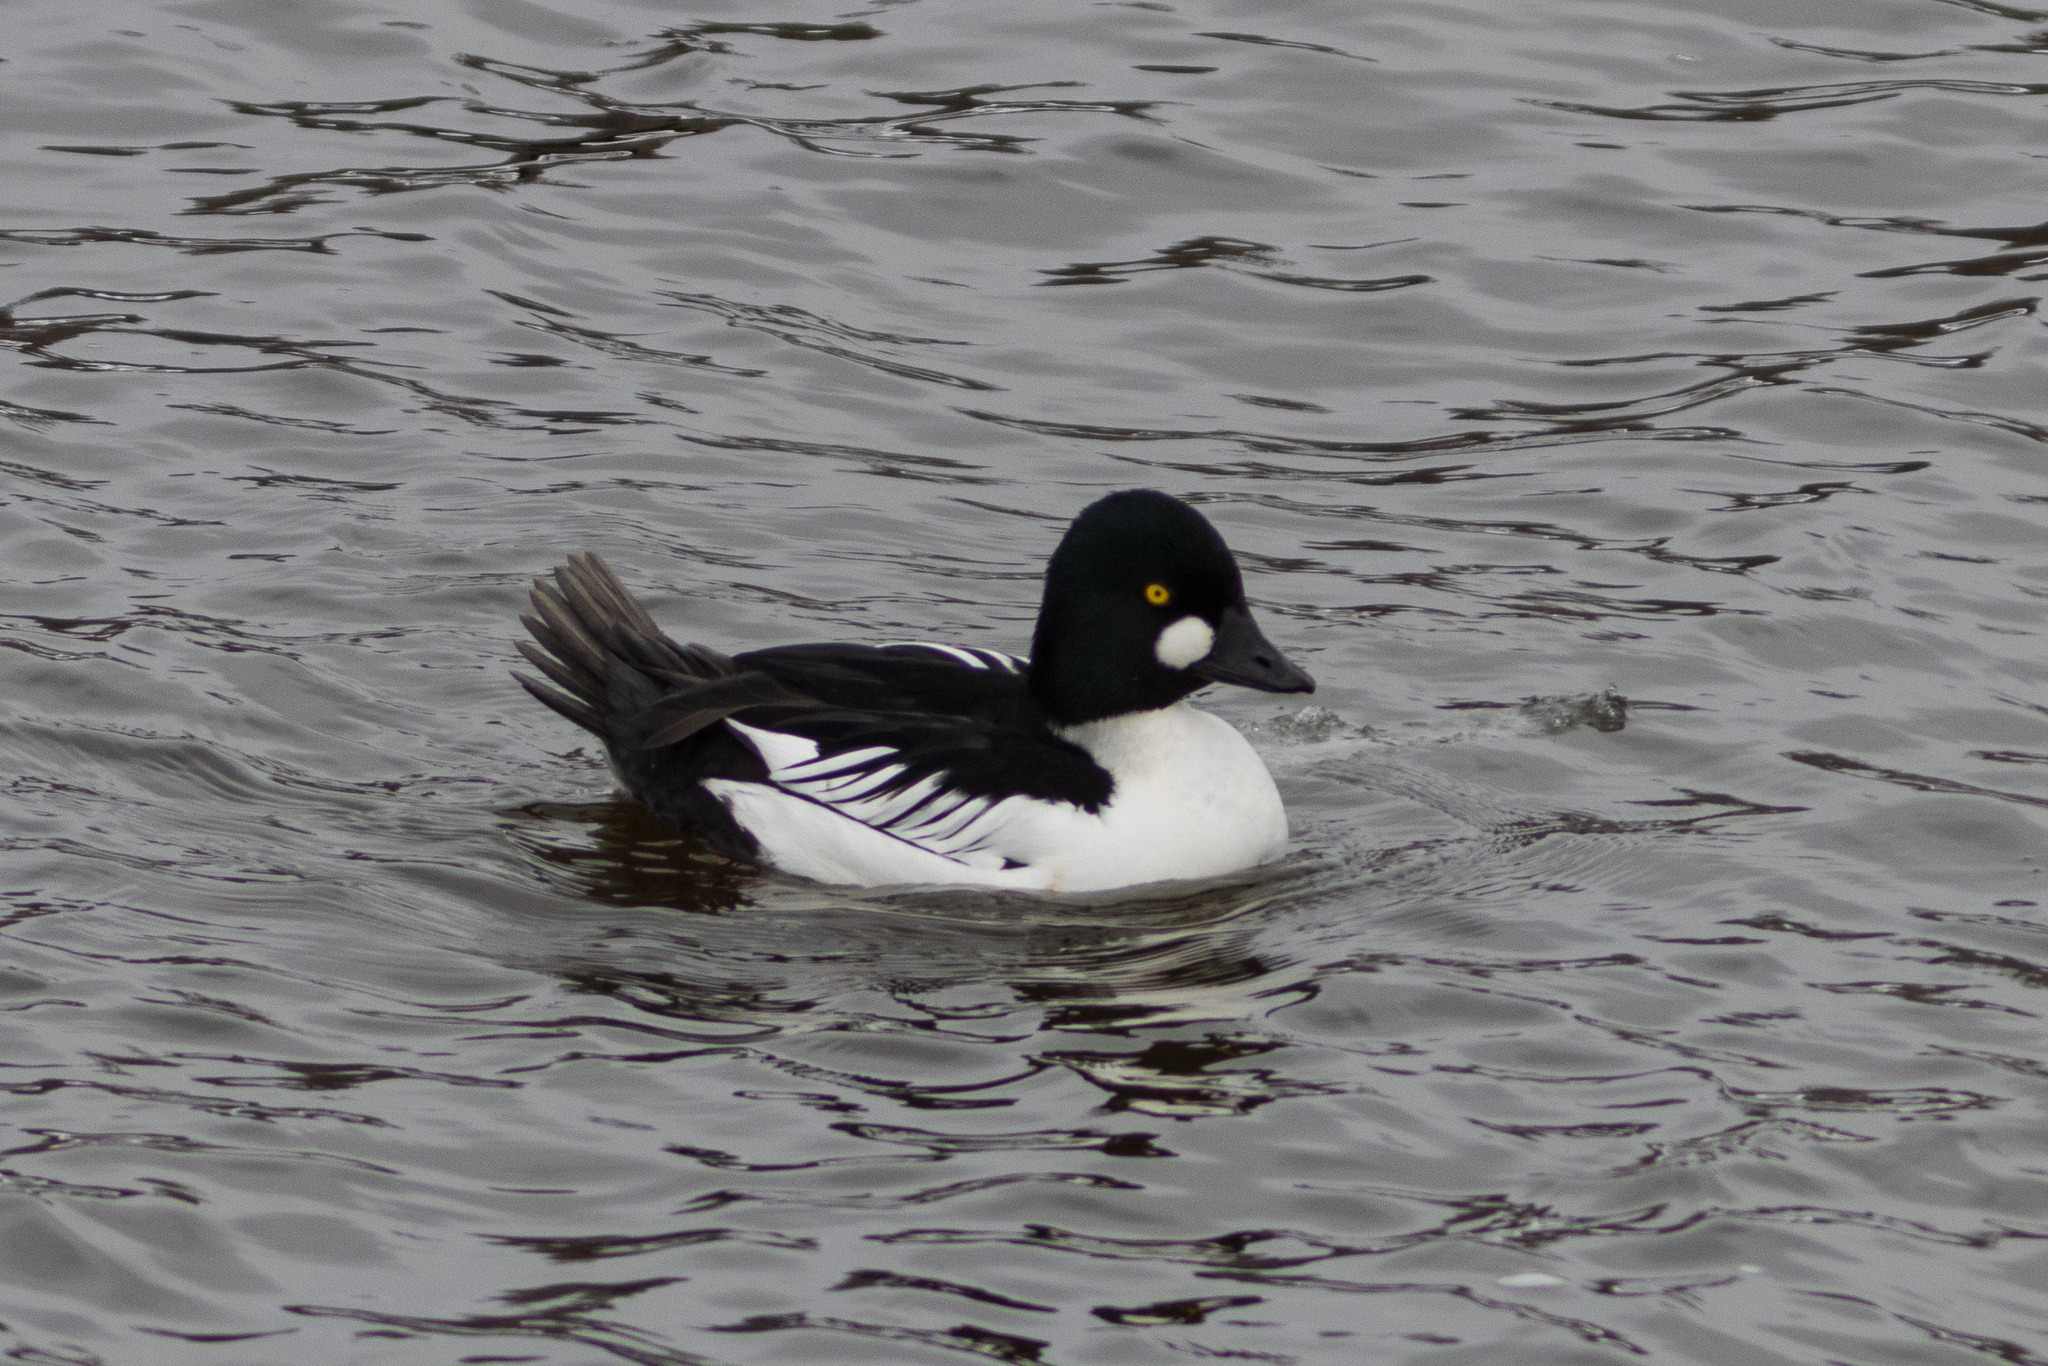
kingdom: Animalia
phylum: Chordata
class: Aves
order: Anseriformes
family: Anatidae
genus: Bucephala
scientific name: Bucephala clangula
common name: Common goldeneye
